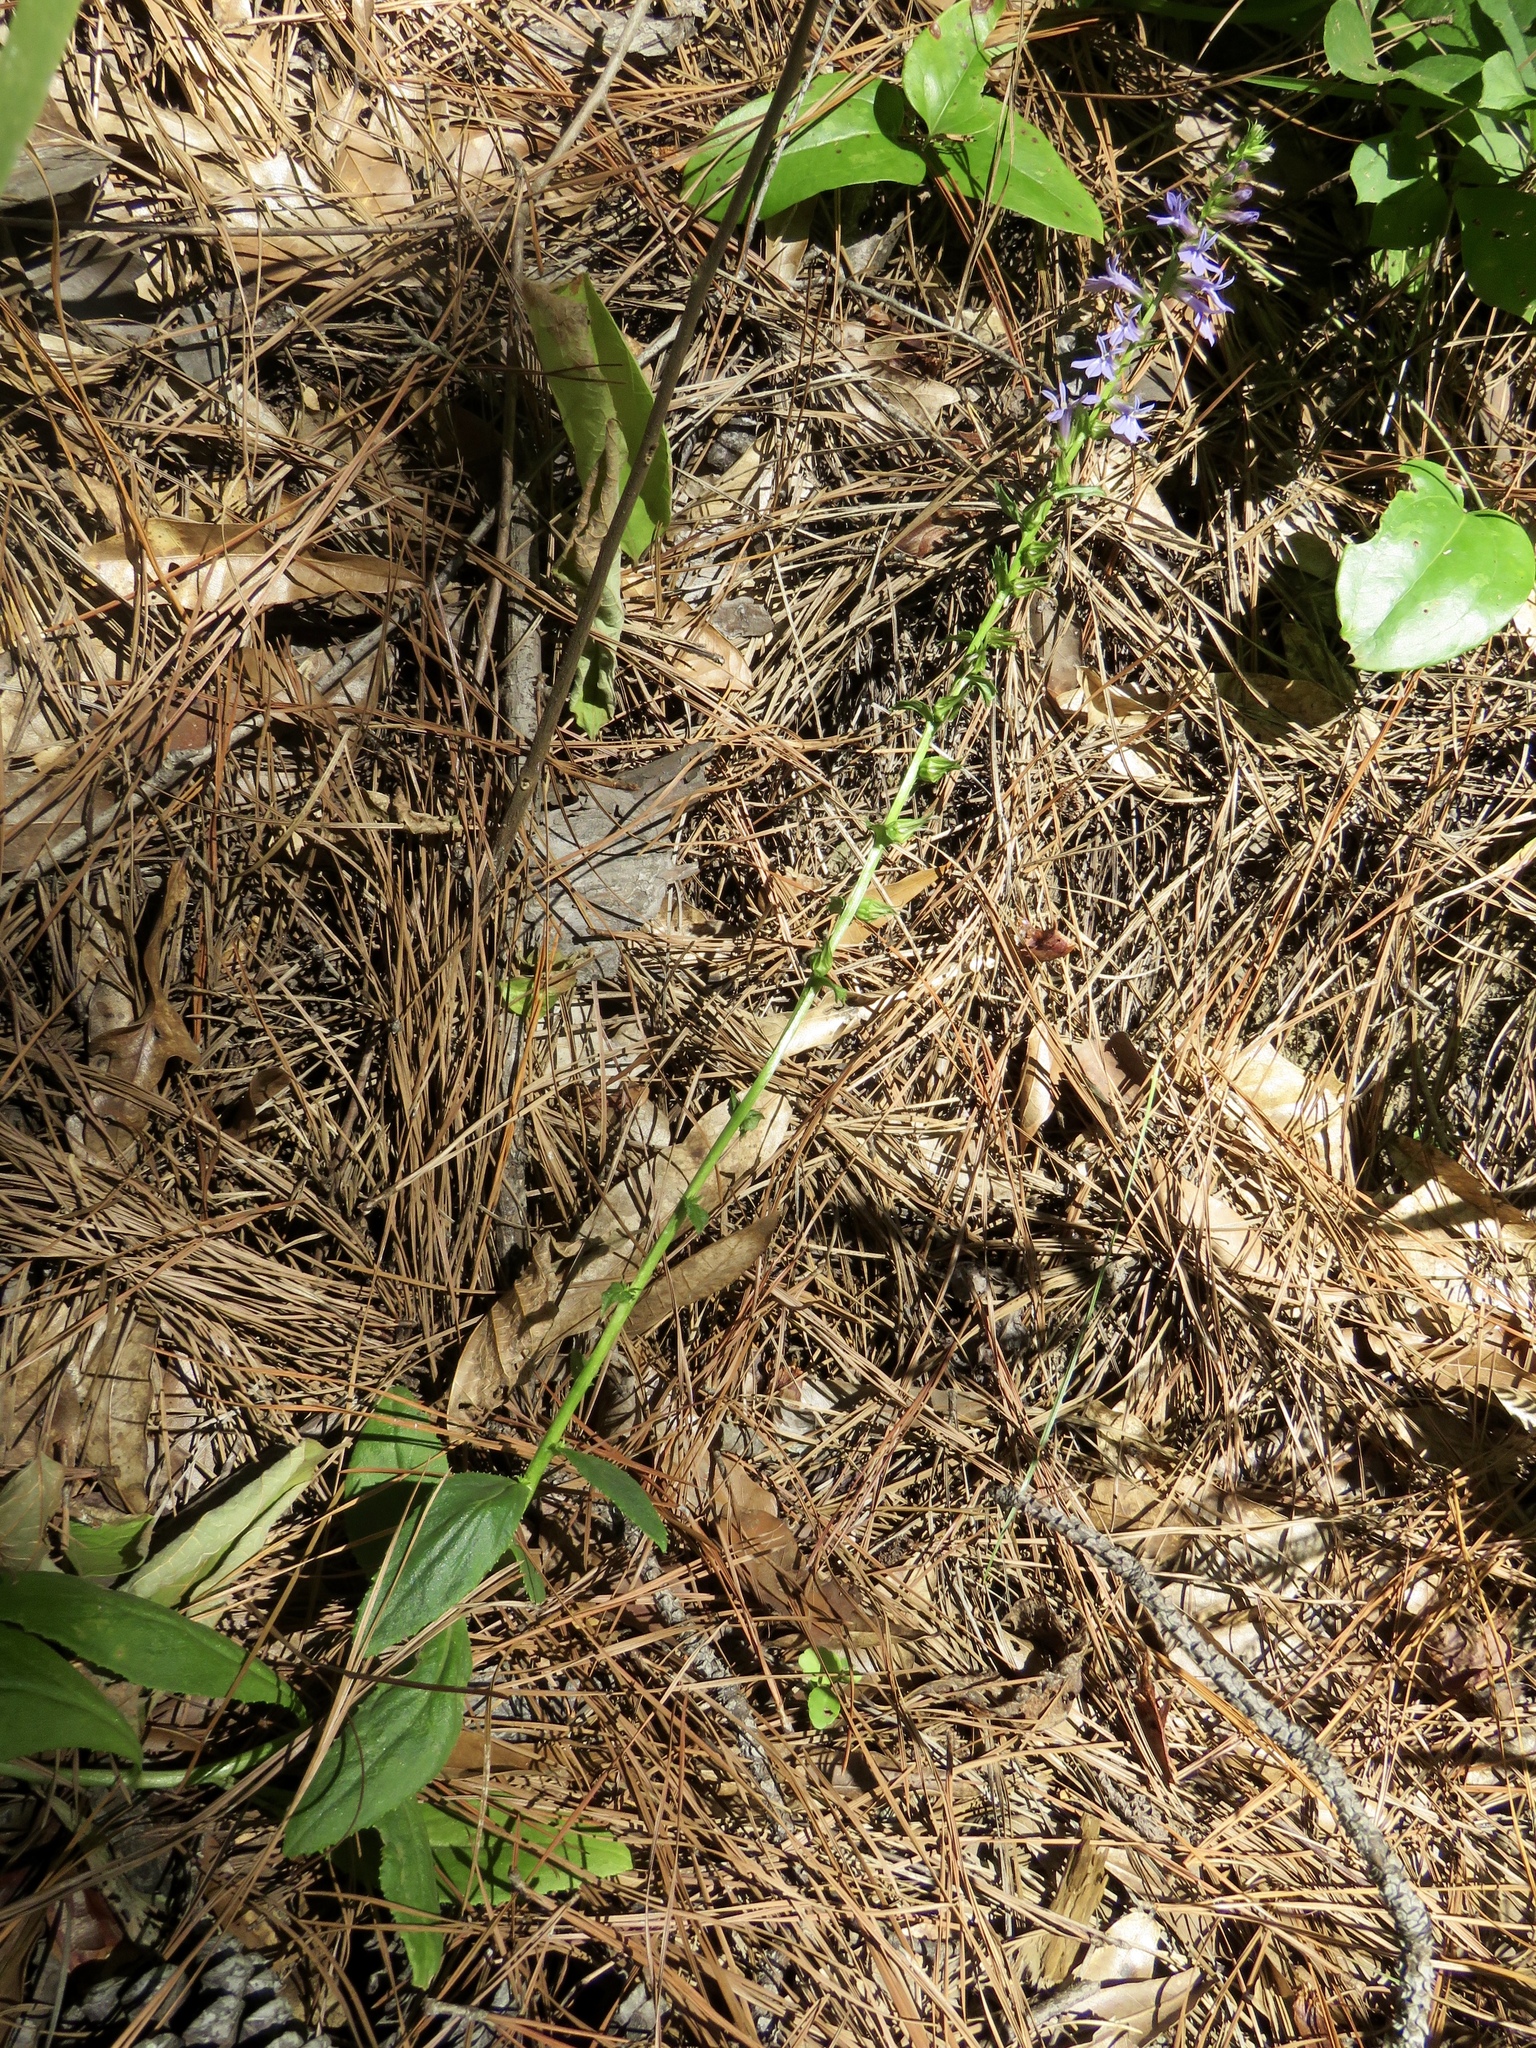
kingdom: Plantae
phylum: Tracheophyta
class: Magnoliopsida
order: Asterales
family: Campanulaceae
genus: Lobelia
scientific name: Lobelia puberula
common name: Purple dewdrop
